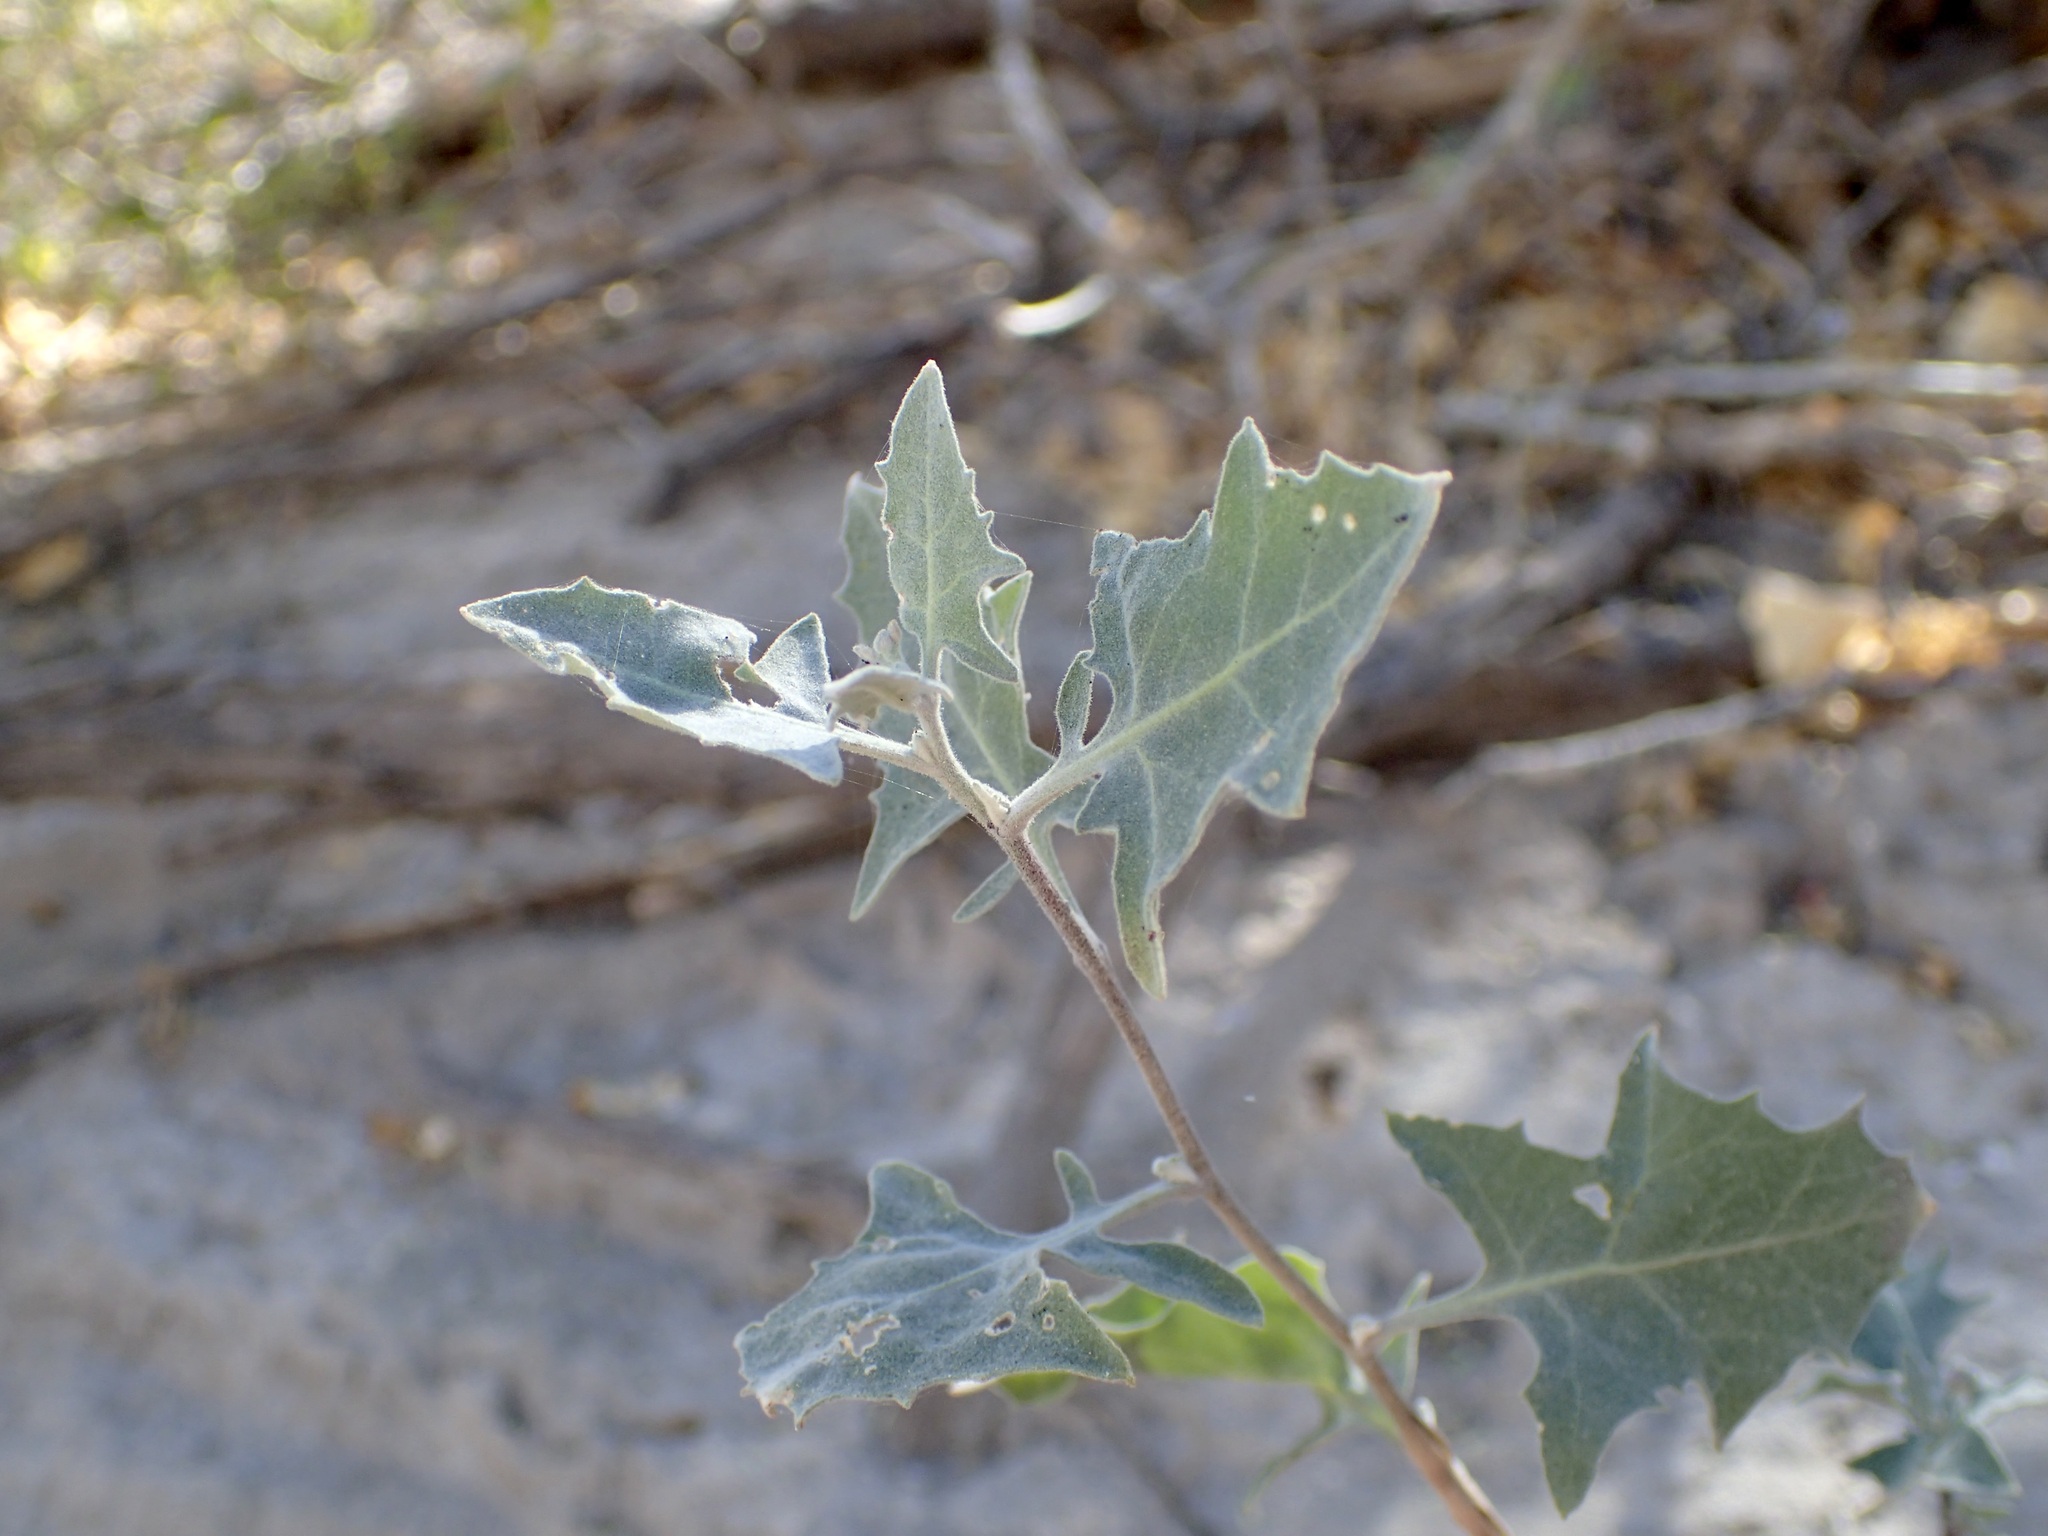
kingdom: Plantae
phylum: Tracheophyta
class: Magnoliopsida
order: Brassicales
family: Brassicaceae
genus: Lyrocarpa
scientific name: Lyrocarpa coulteri
